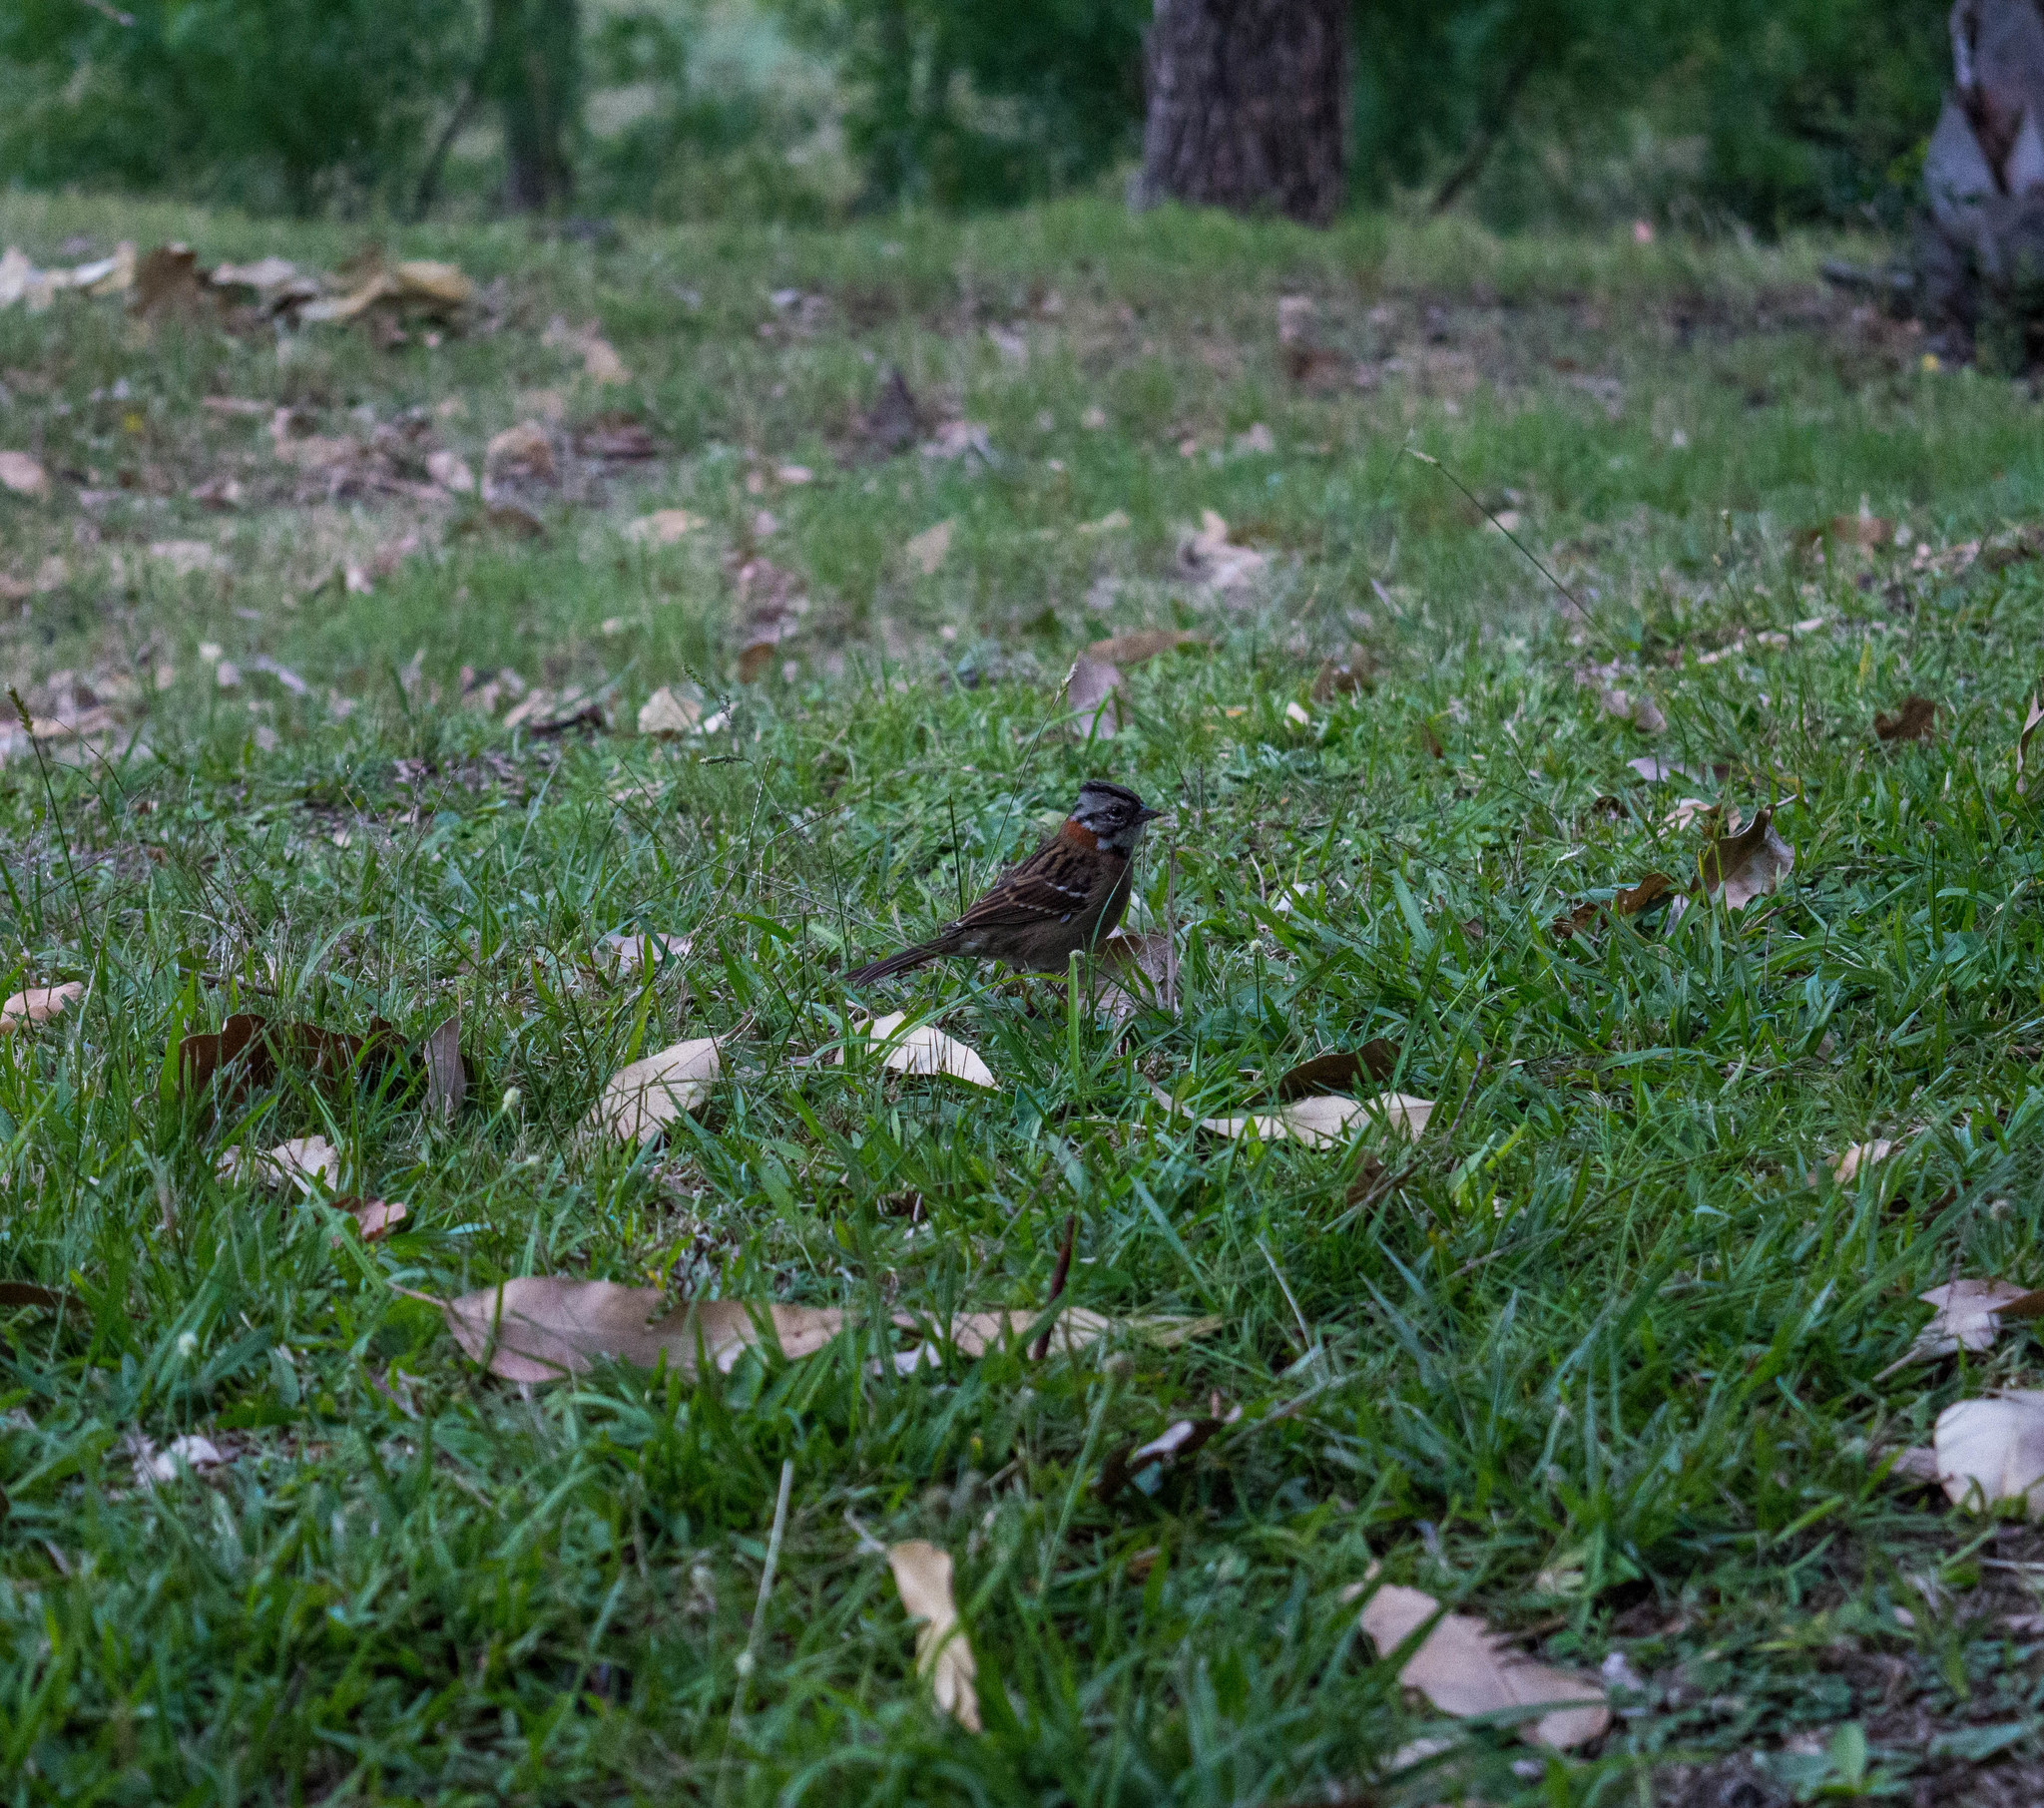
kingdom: Animalia
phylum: Chordata
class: Aves
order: Passeriformes
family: Passerellidae
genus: Zonotrichia
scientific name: Zonotrichia capensis
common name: Rufous-collared sparrow
